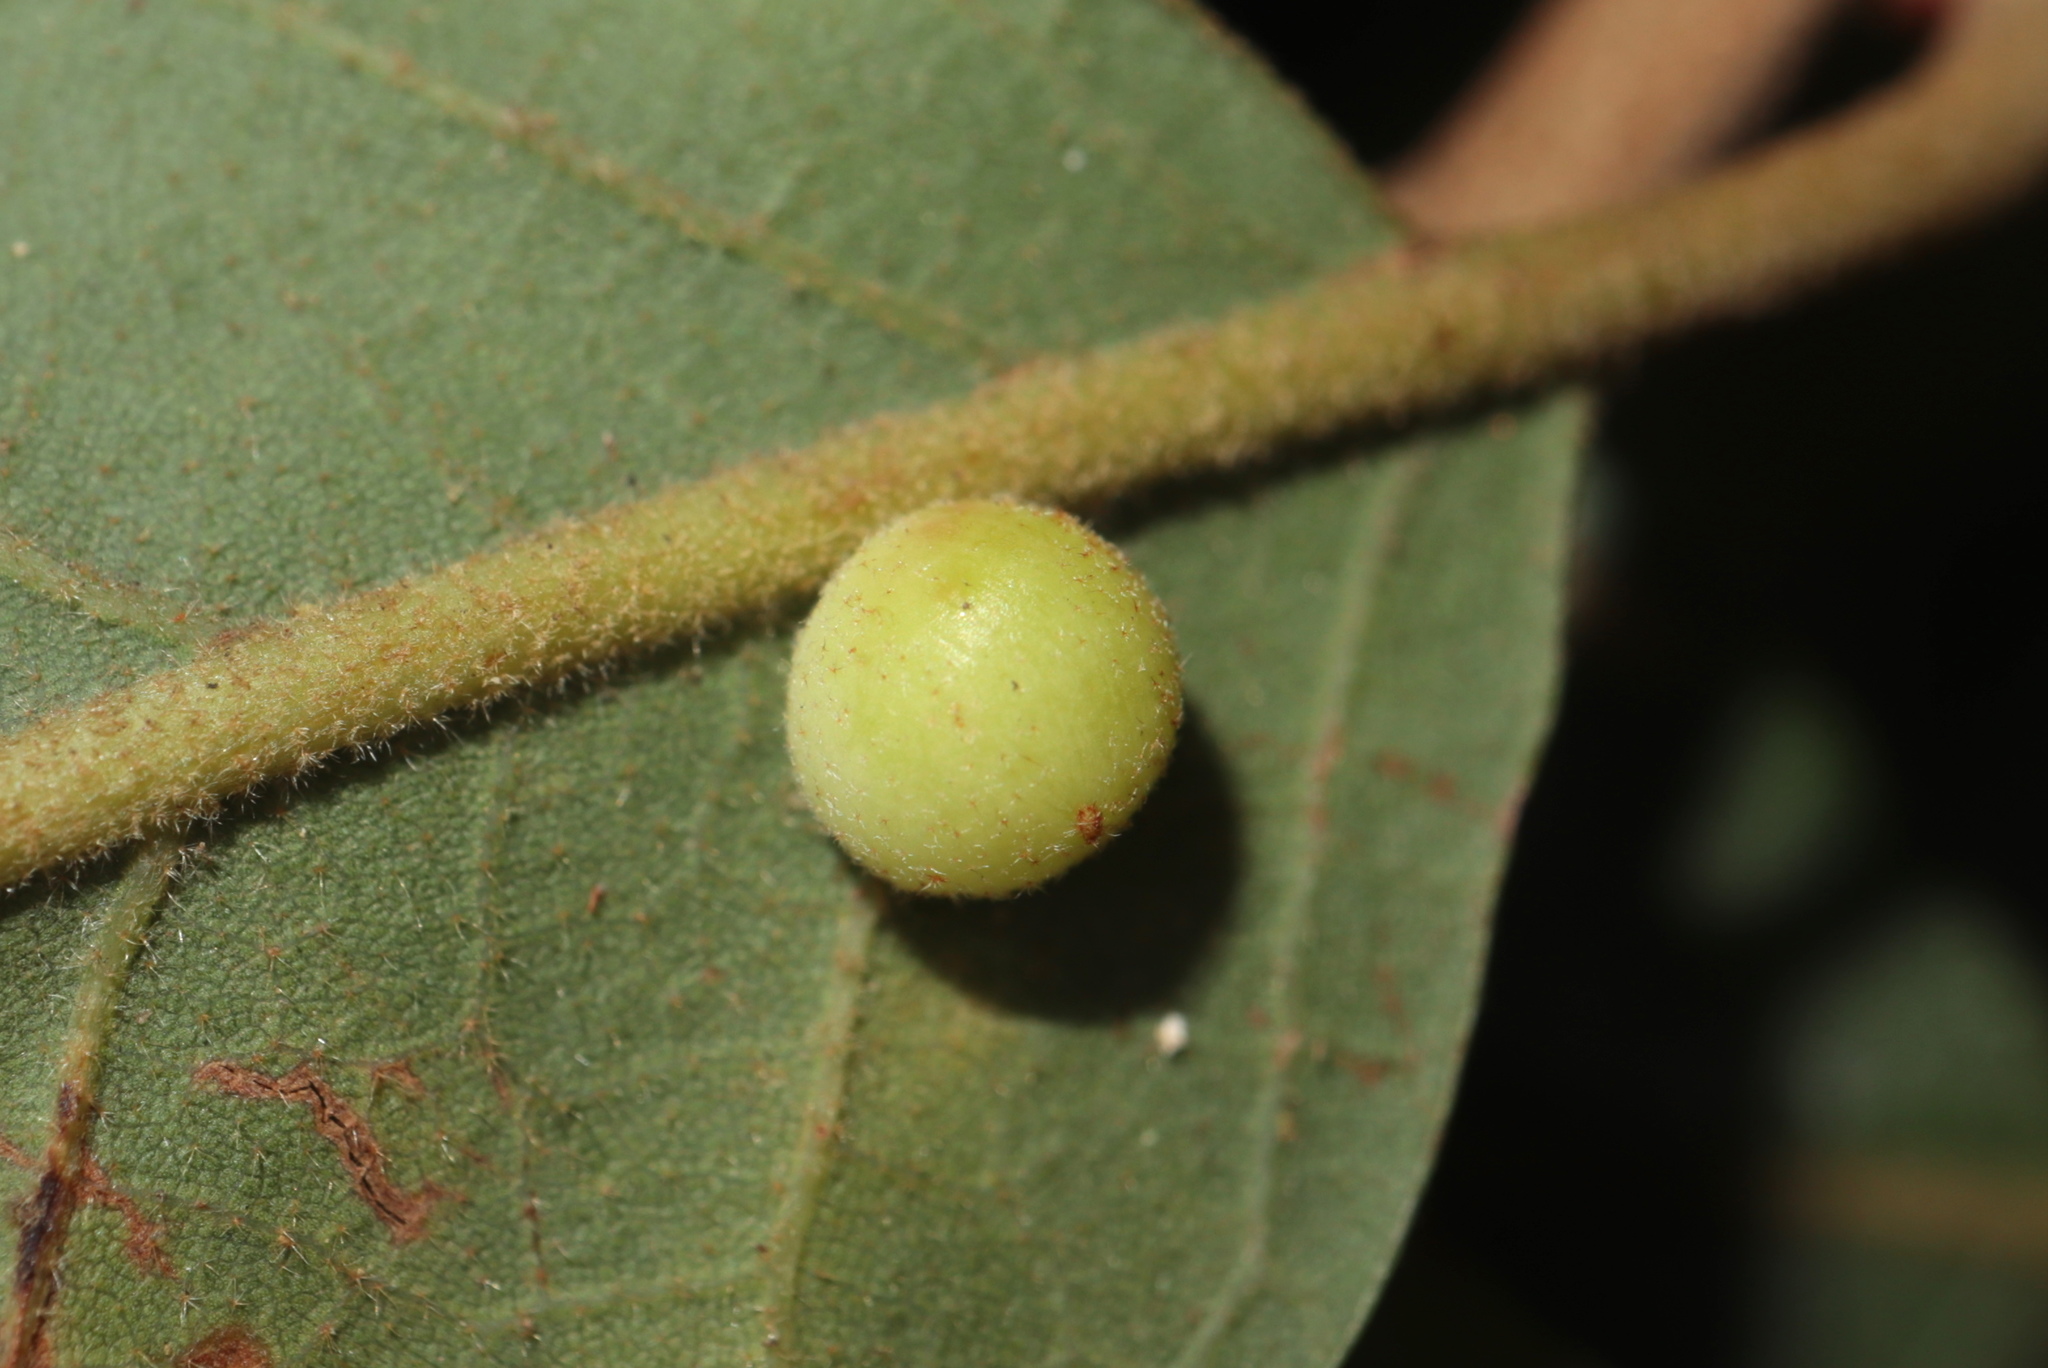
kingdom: Animalia
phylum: Arthropoda
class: Insecta
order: Hymenoptera
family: Cynipidae
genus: Atrusca
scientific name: Atrusca
